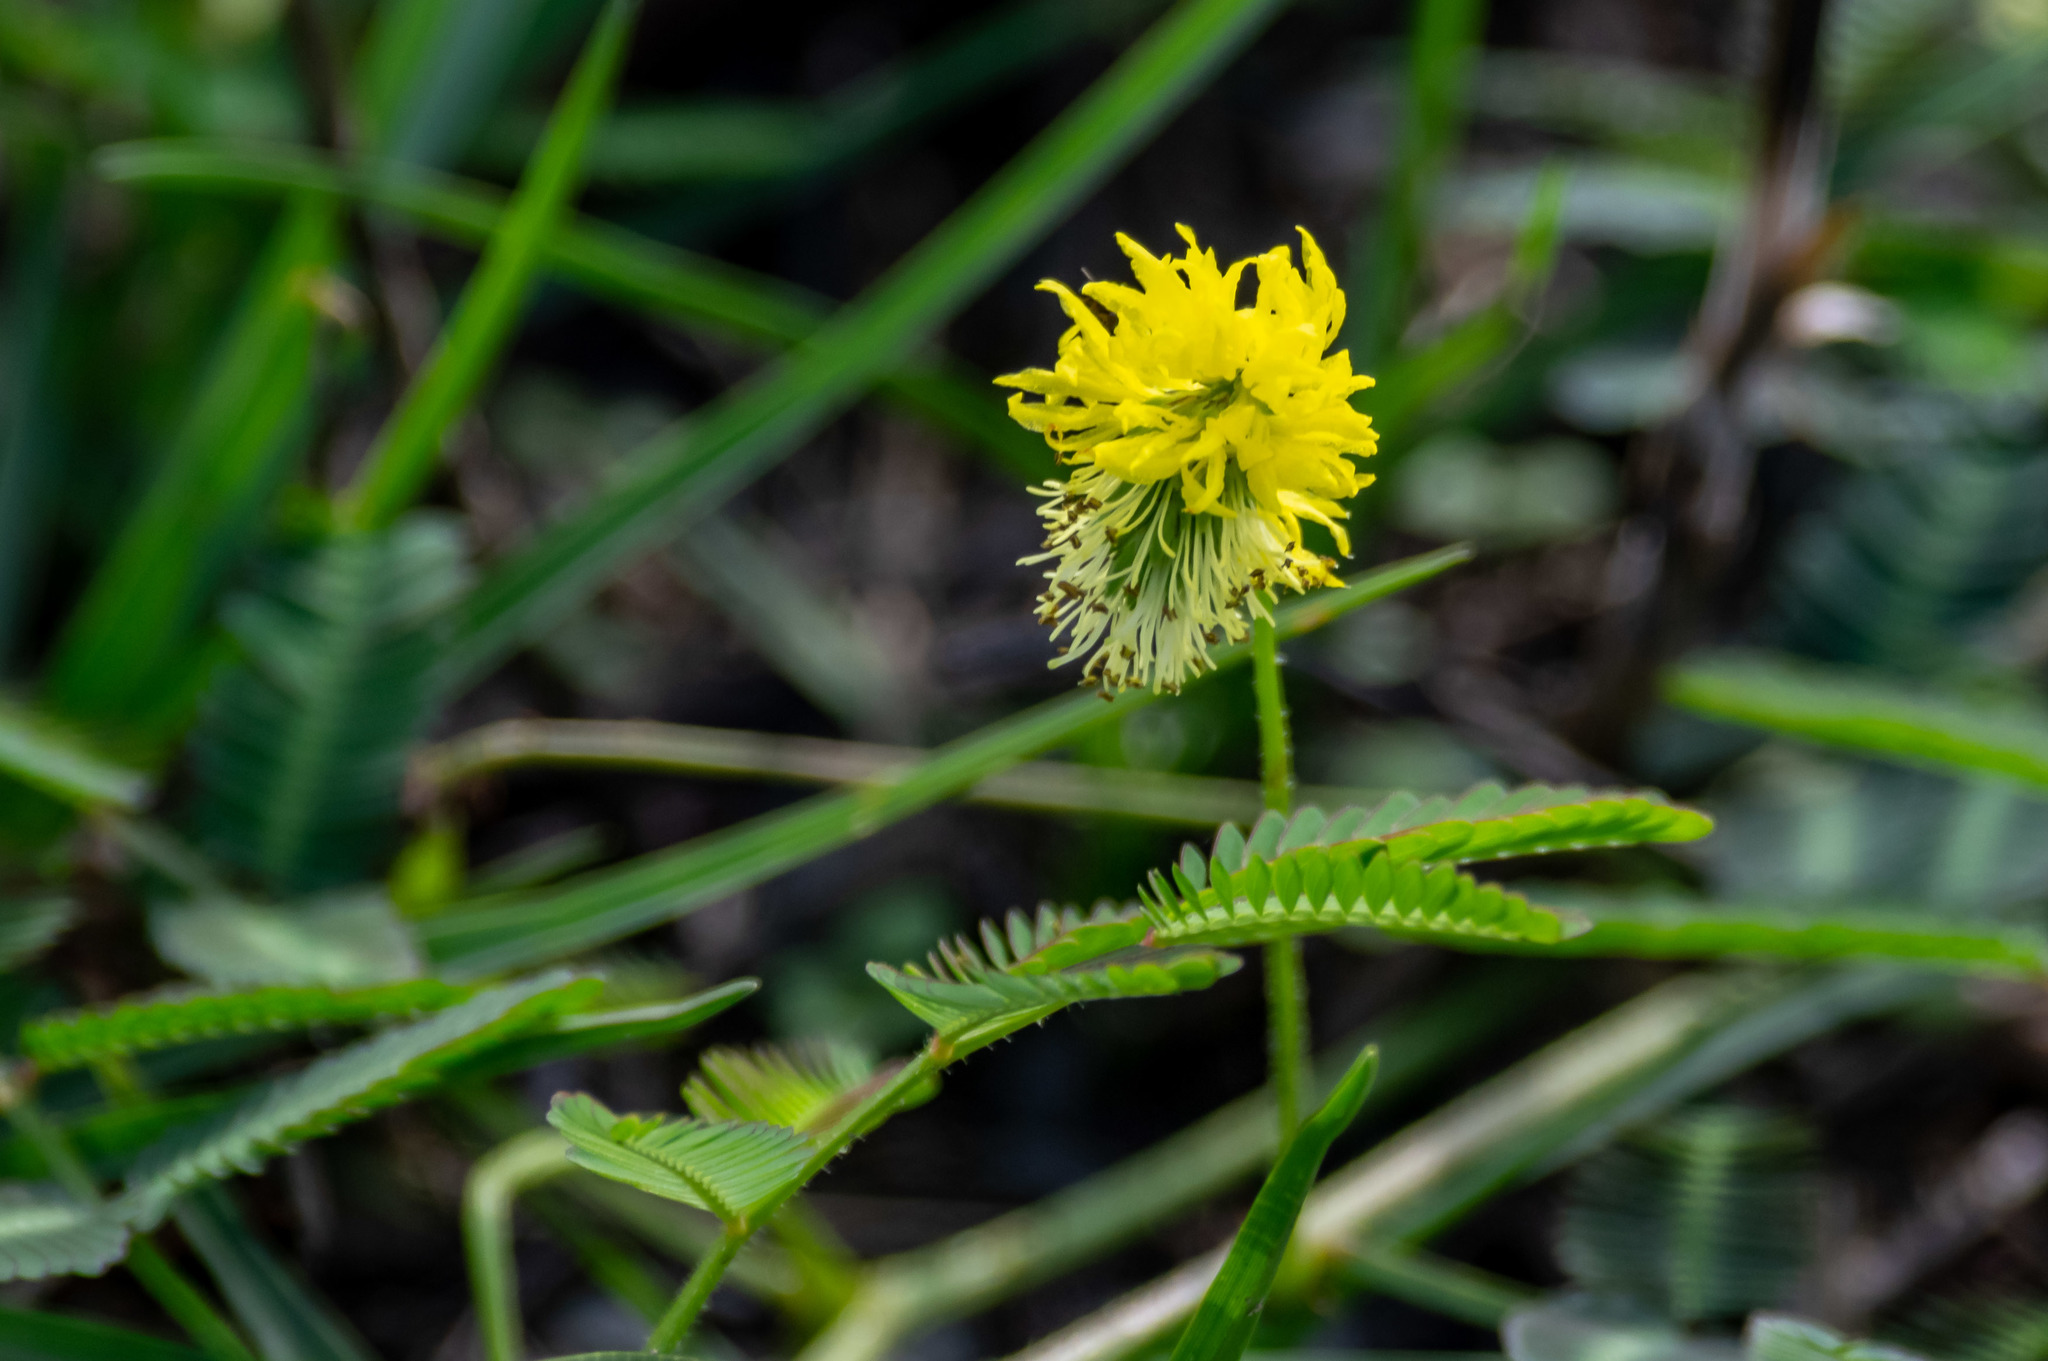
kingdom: Plantae
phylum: Tracheophyta
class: Magnoliopsida
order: Fabales
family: Fabaceae
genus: Neptunia
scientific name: Neptunia pubescens
